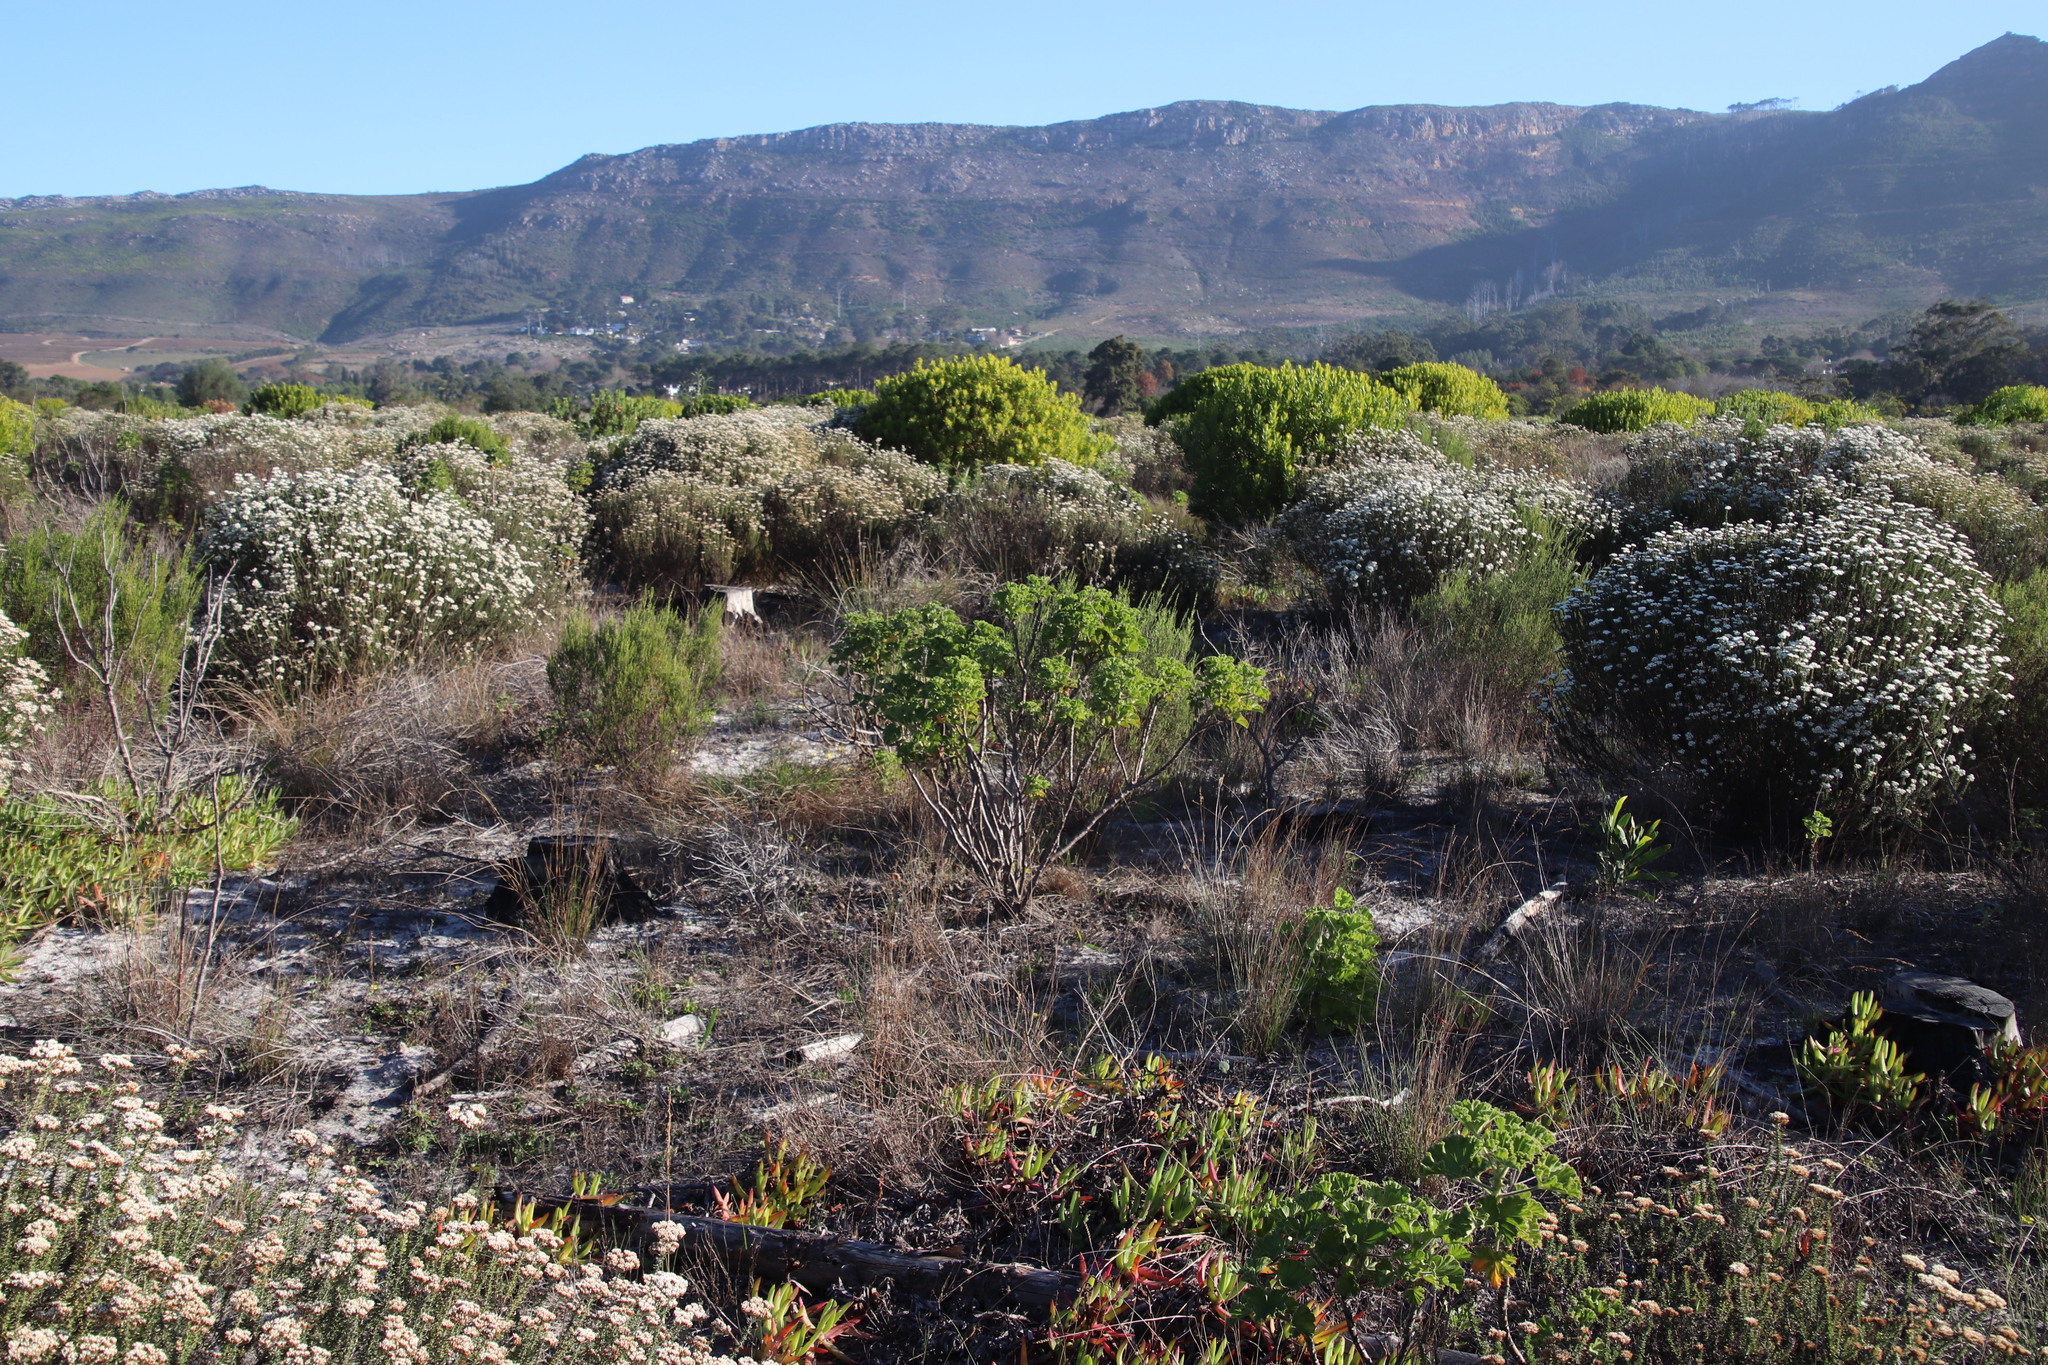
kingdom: Plantae
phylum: Tracheophyta
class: Magnoliopsida
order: Geraniales
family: Geraniaceae
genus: Pelargonium
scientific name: Pelargonium cucullatum
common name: Tree pelargonium
